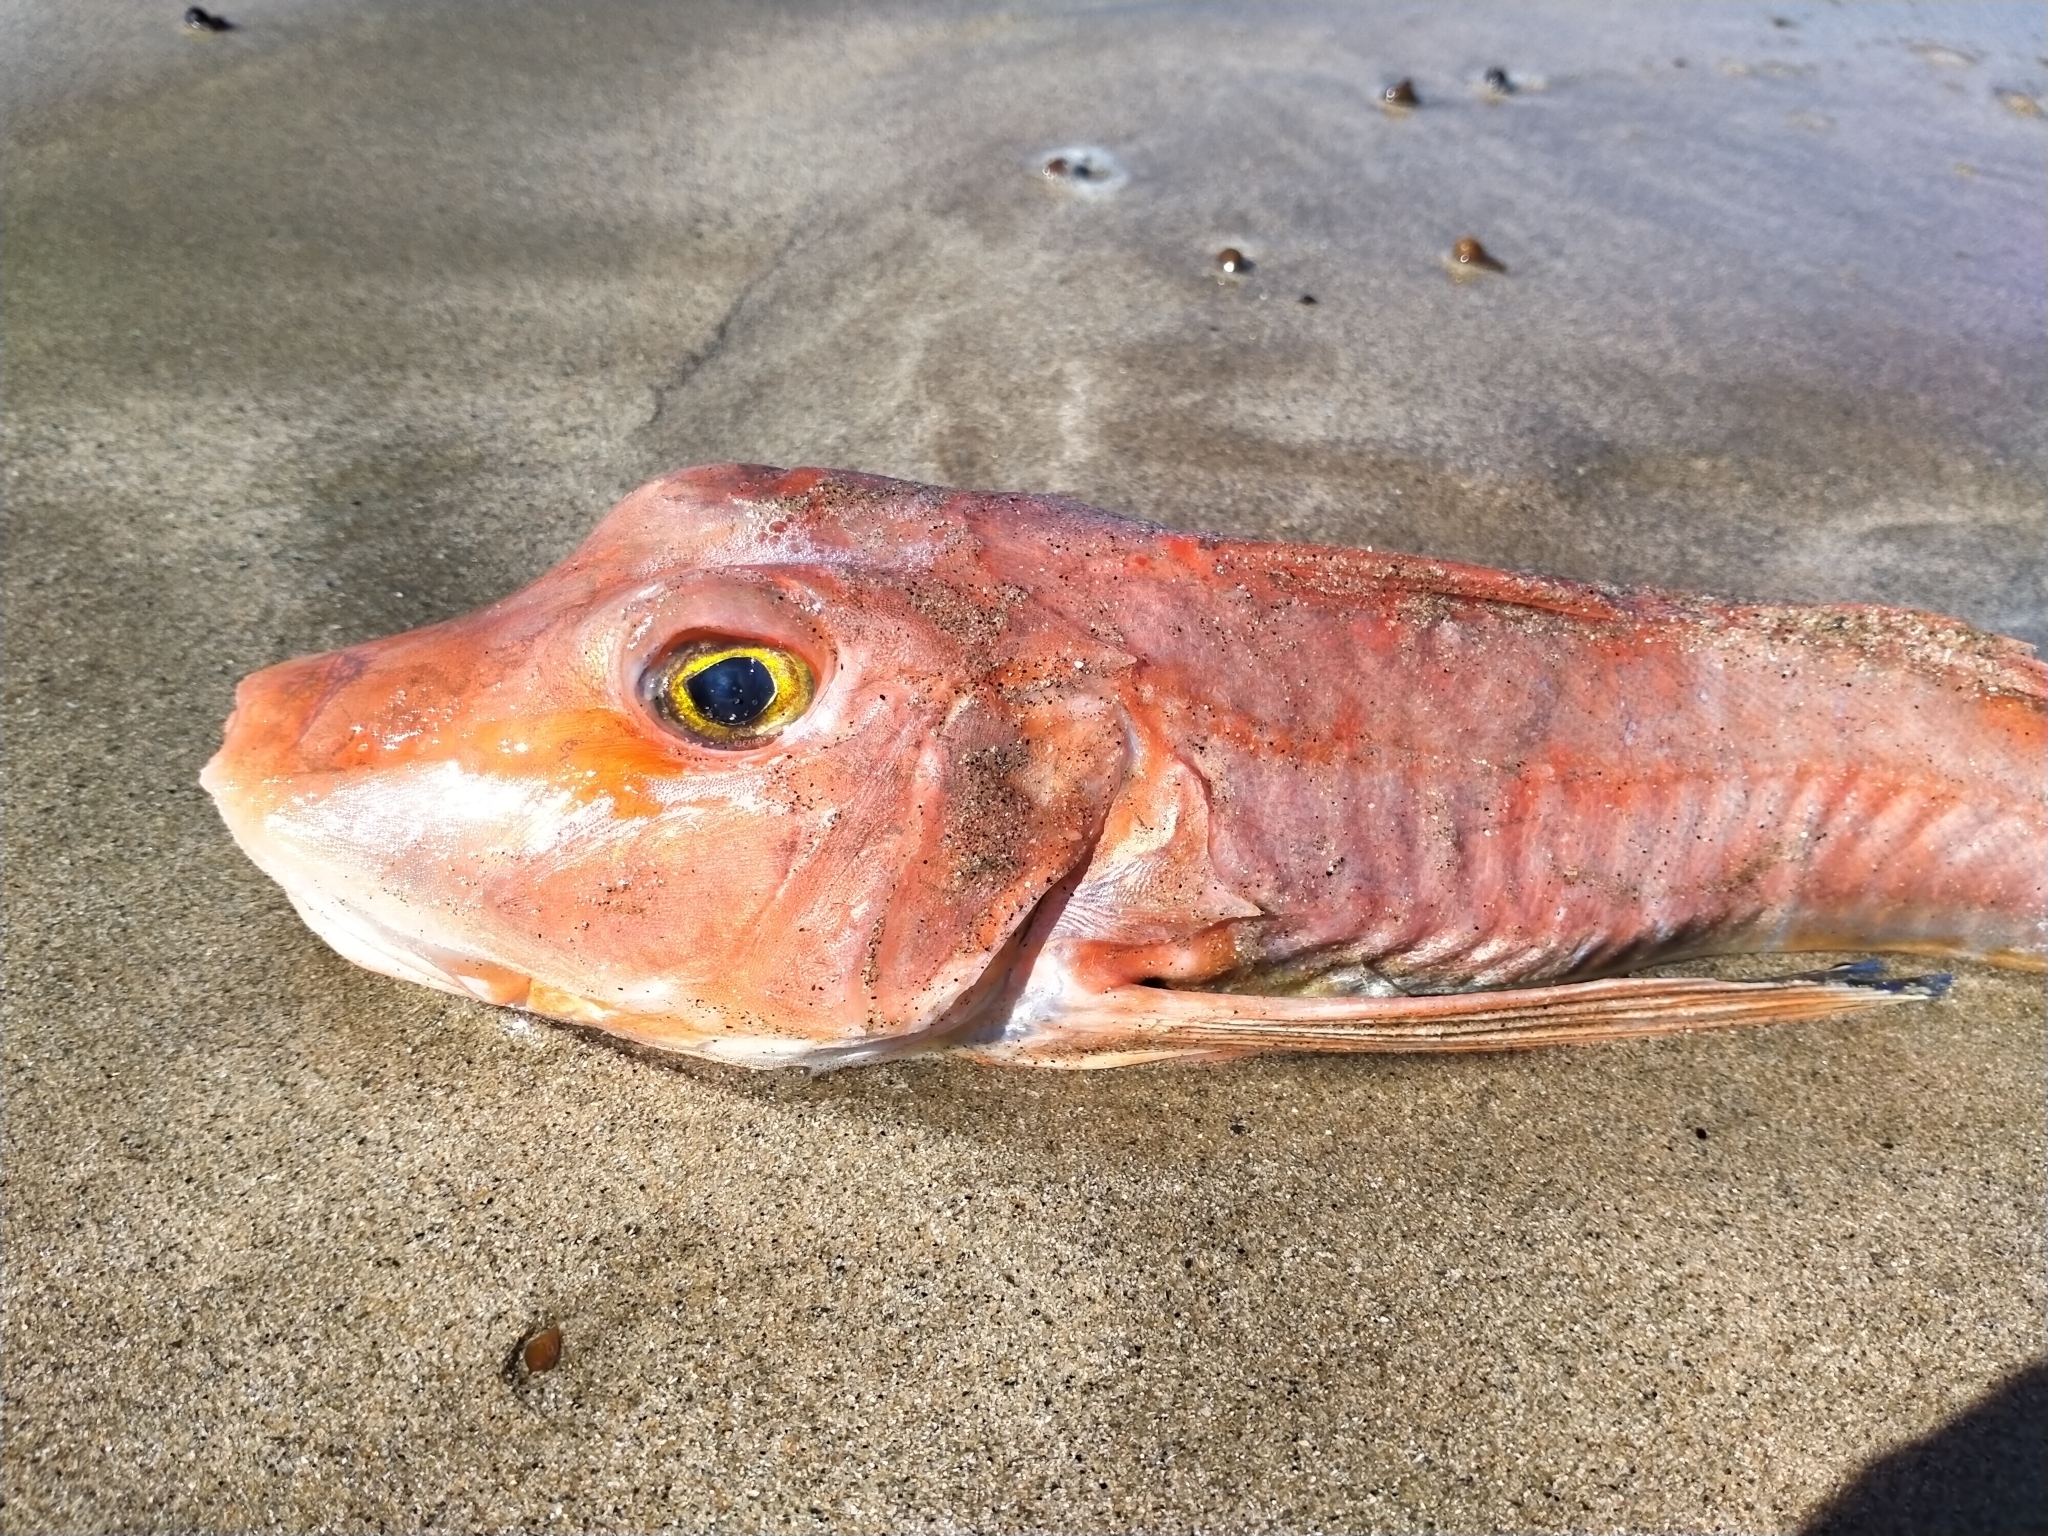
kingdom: Animalia
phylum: Chordata
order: Scorpaeniformes
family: Triglidae
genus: Chelidonichthys
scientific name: Chelidonichthys kumu
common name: Bluefin gurnard
